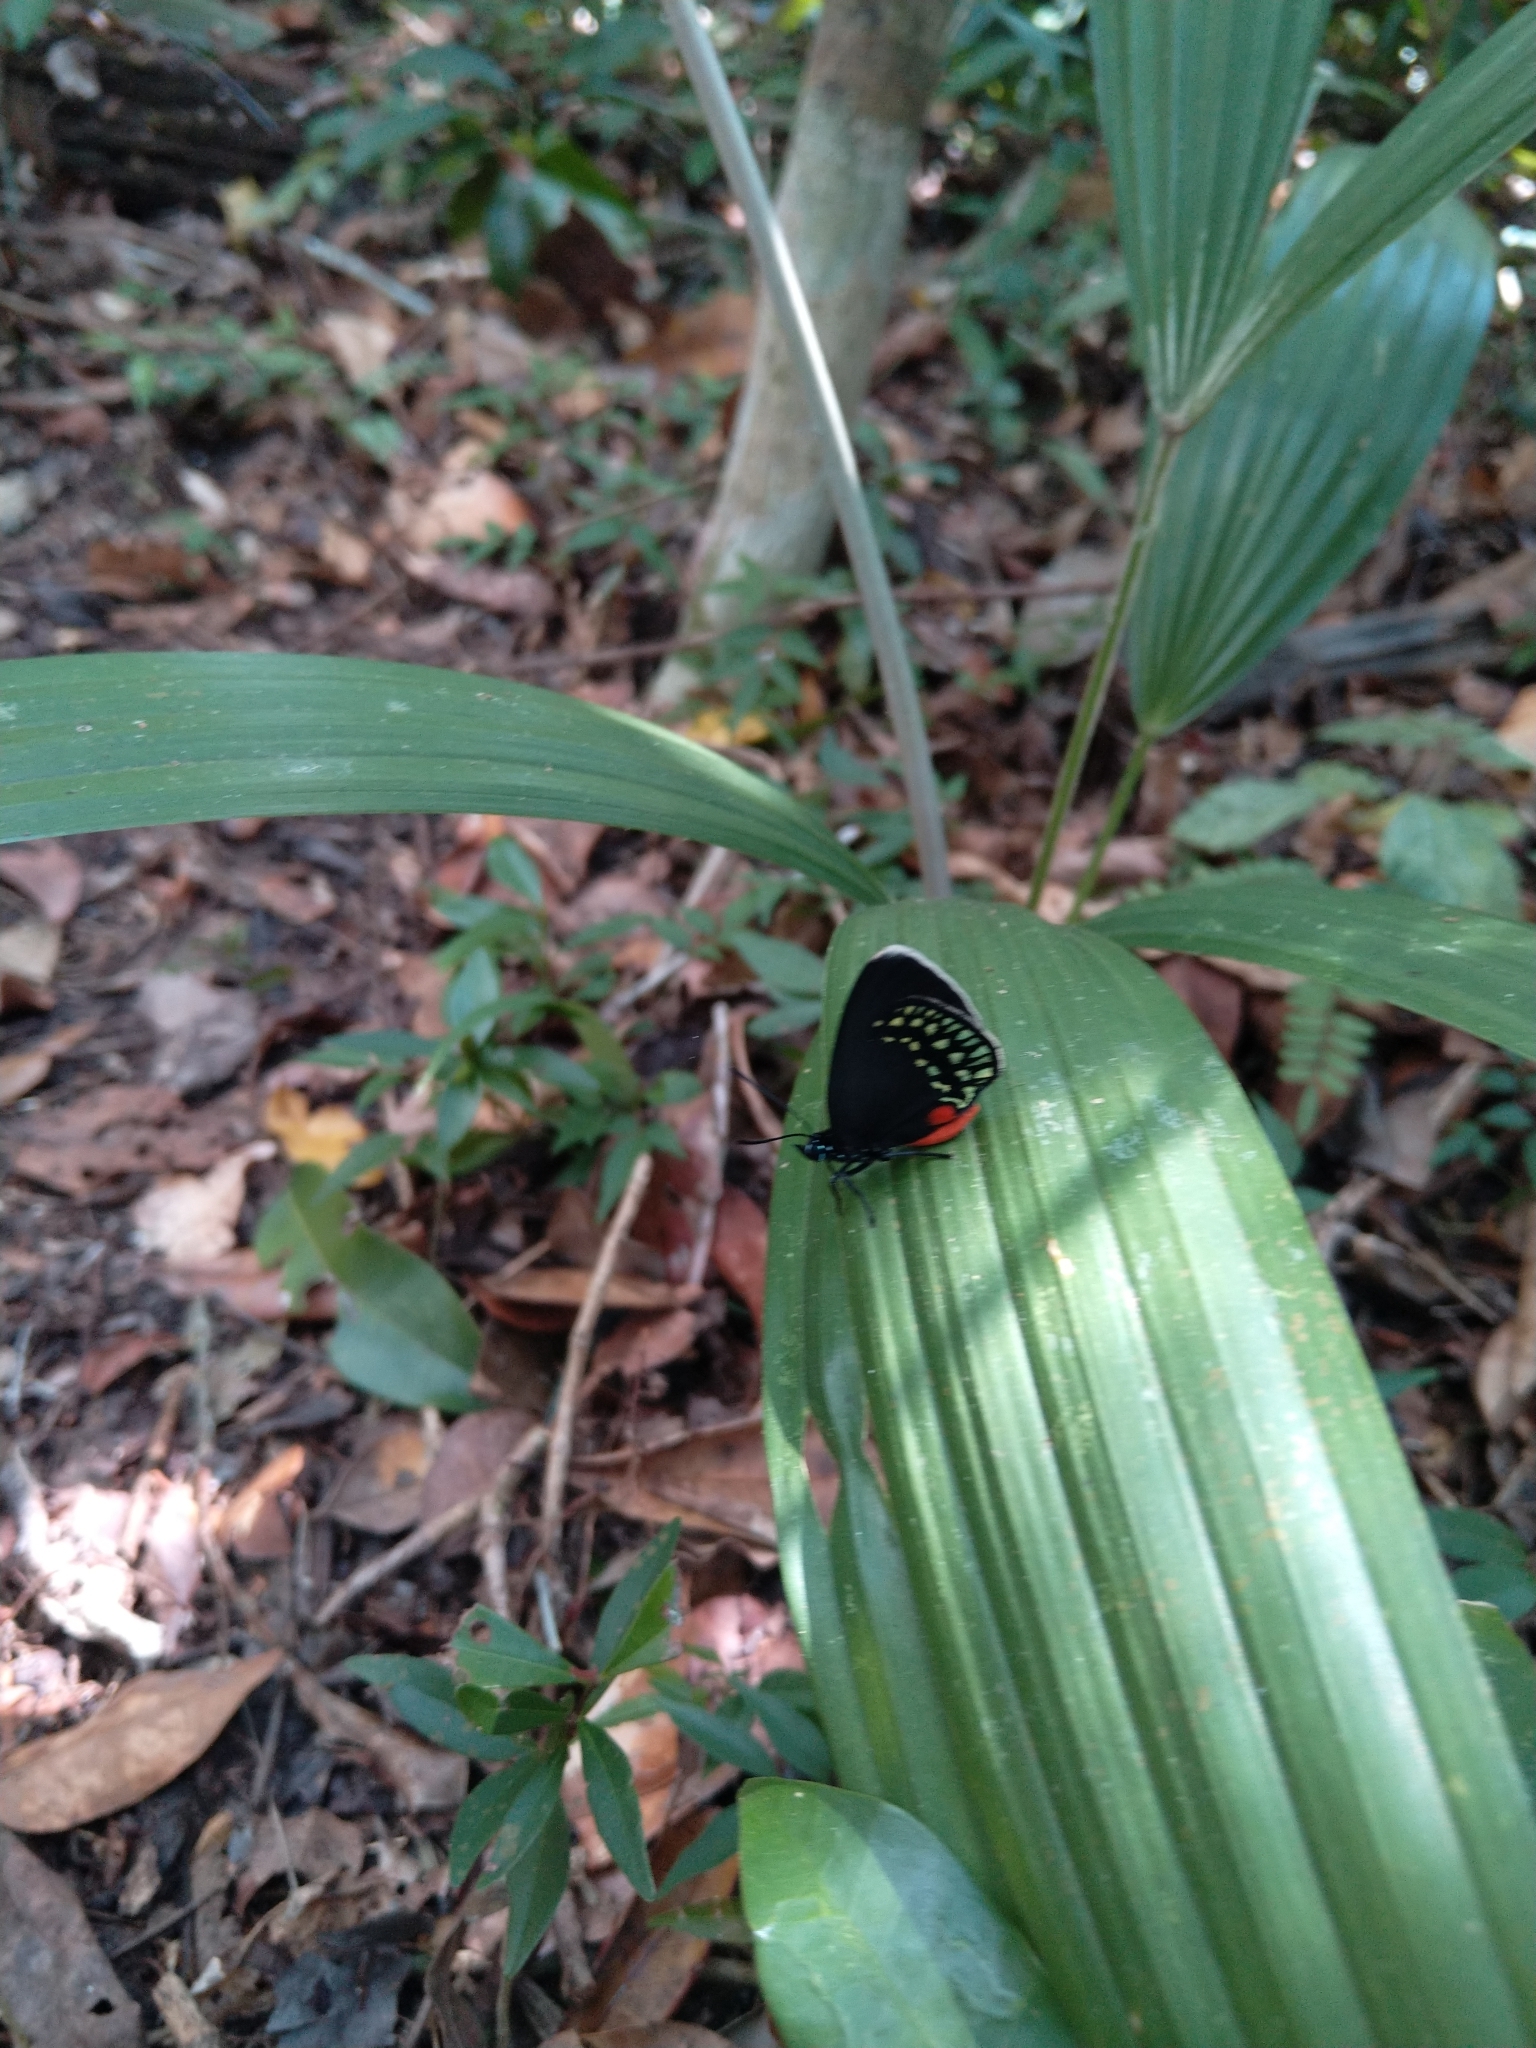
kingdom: Animalia
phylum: Arthropoda
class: Insecta
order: Lepidoptera
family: Lycaenidae
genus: Eumaeus
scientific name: Eumaeus toxea
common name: Mexican cycadian
